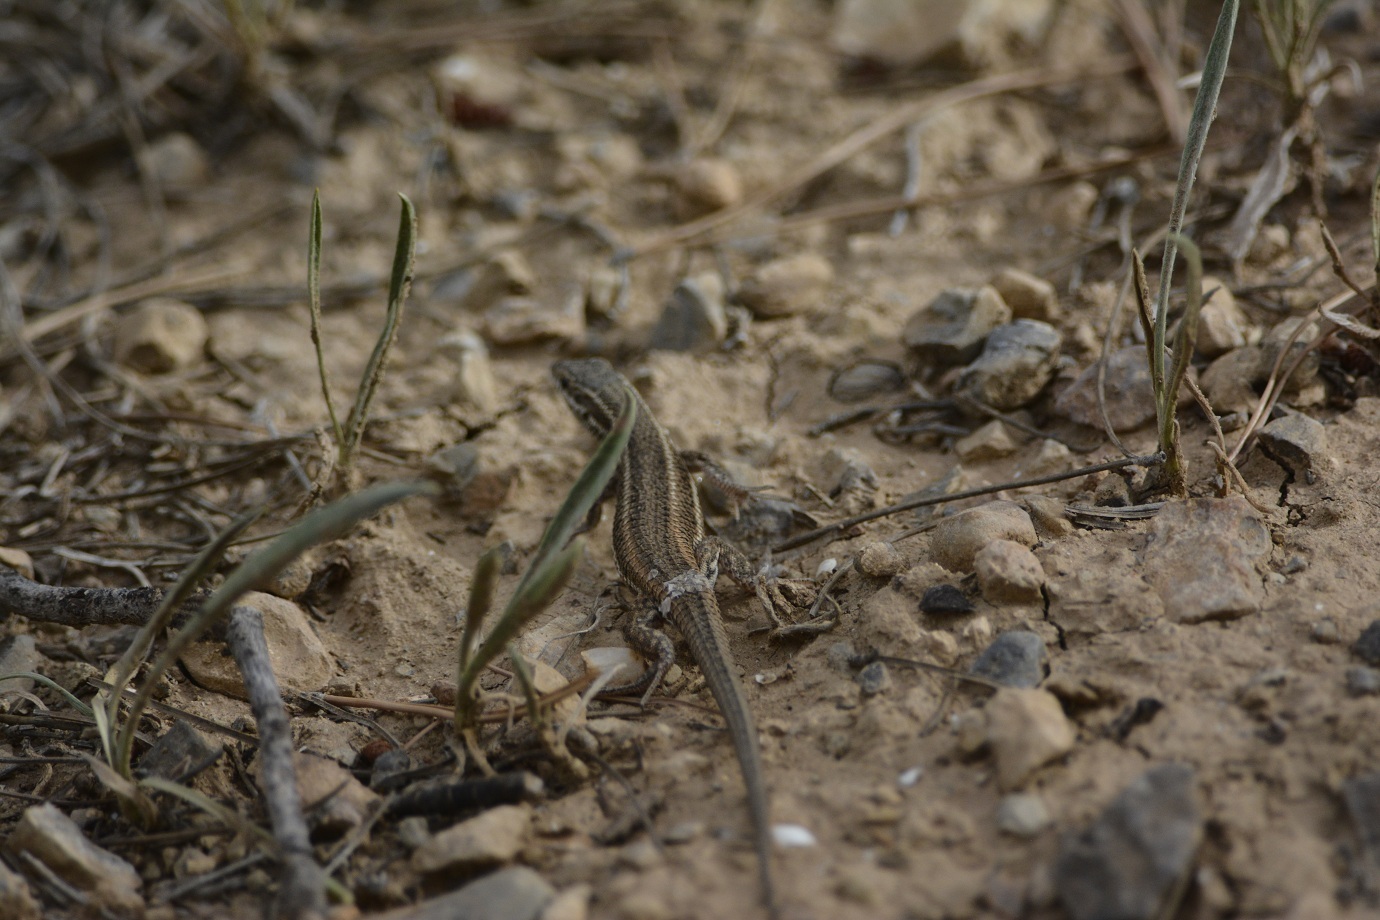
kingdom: Animalia
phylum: Chordata
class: Squamata
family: Lacertidae
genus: Ophisops
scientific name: Ophisops occidentalis
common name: Western snake-eyed lizard
